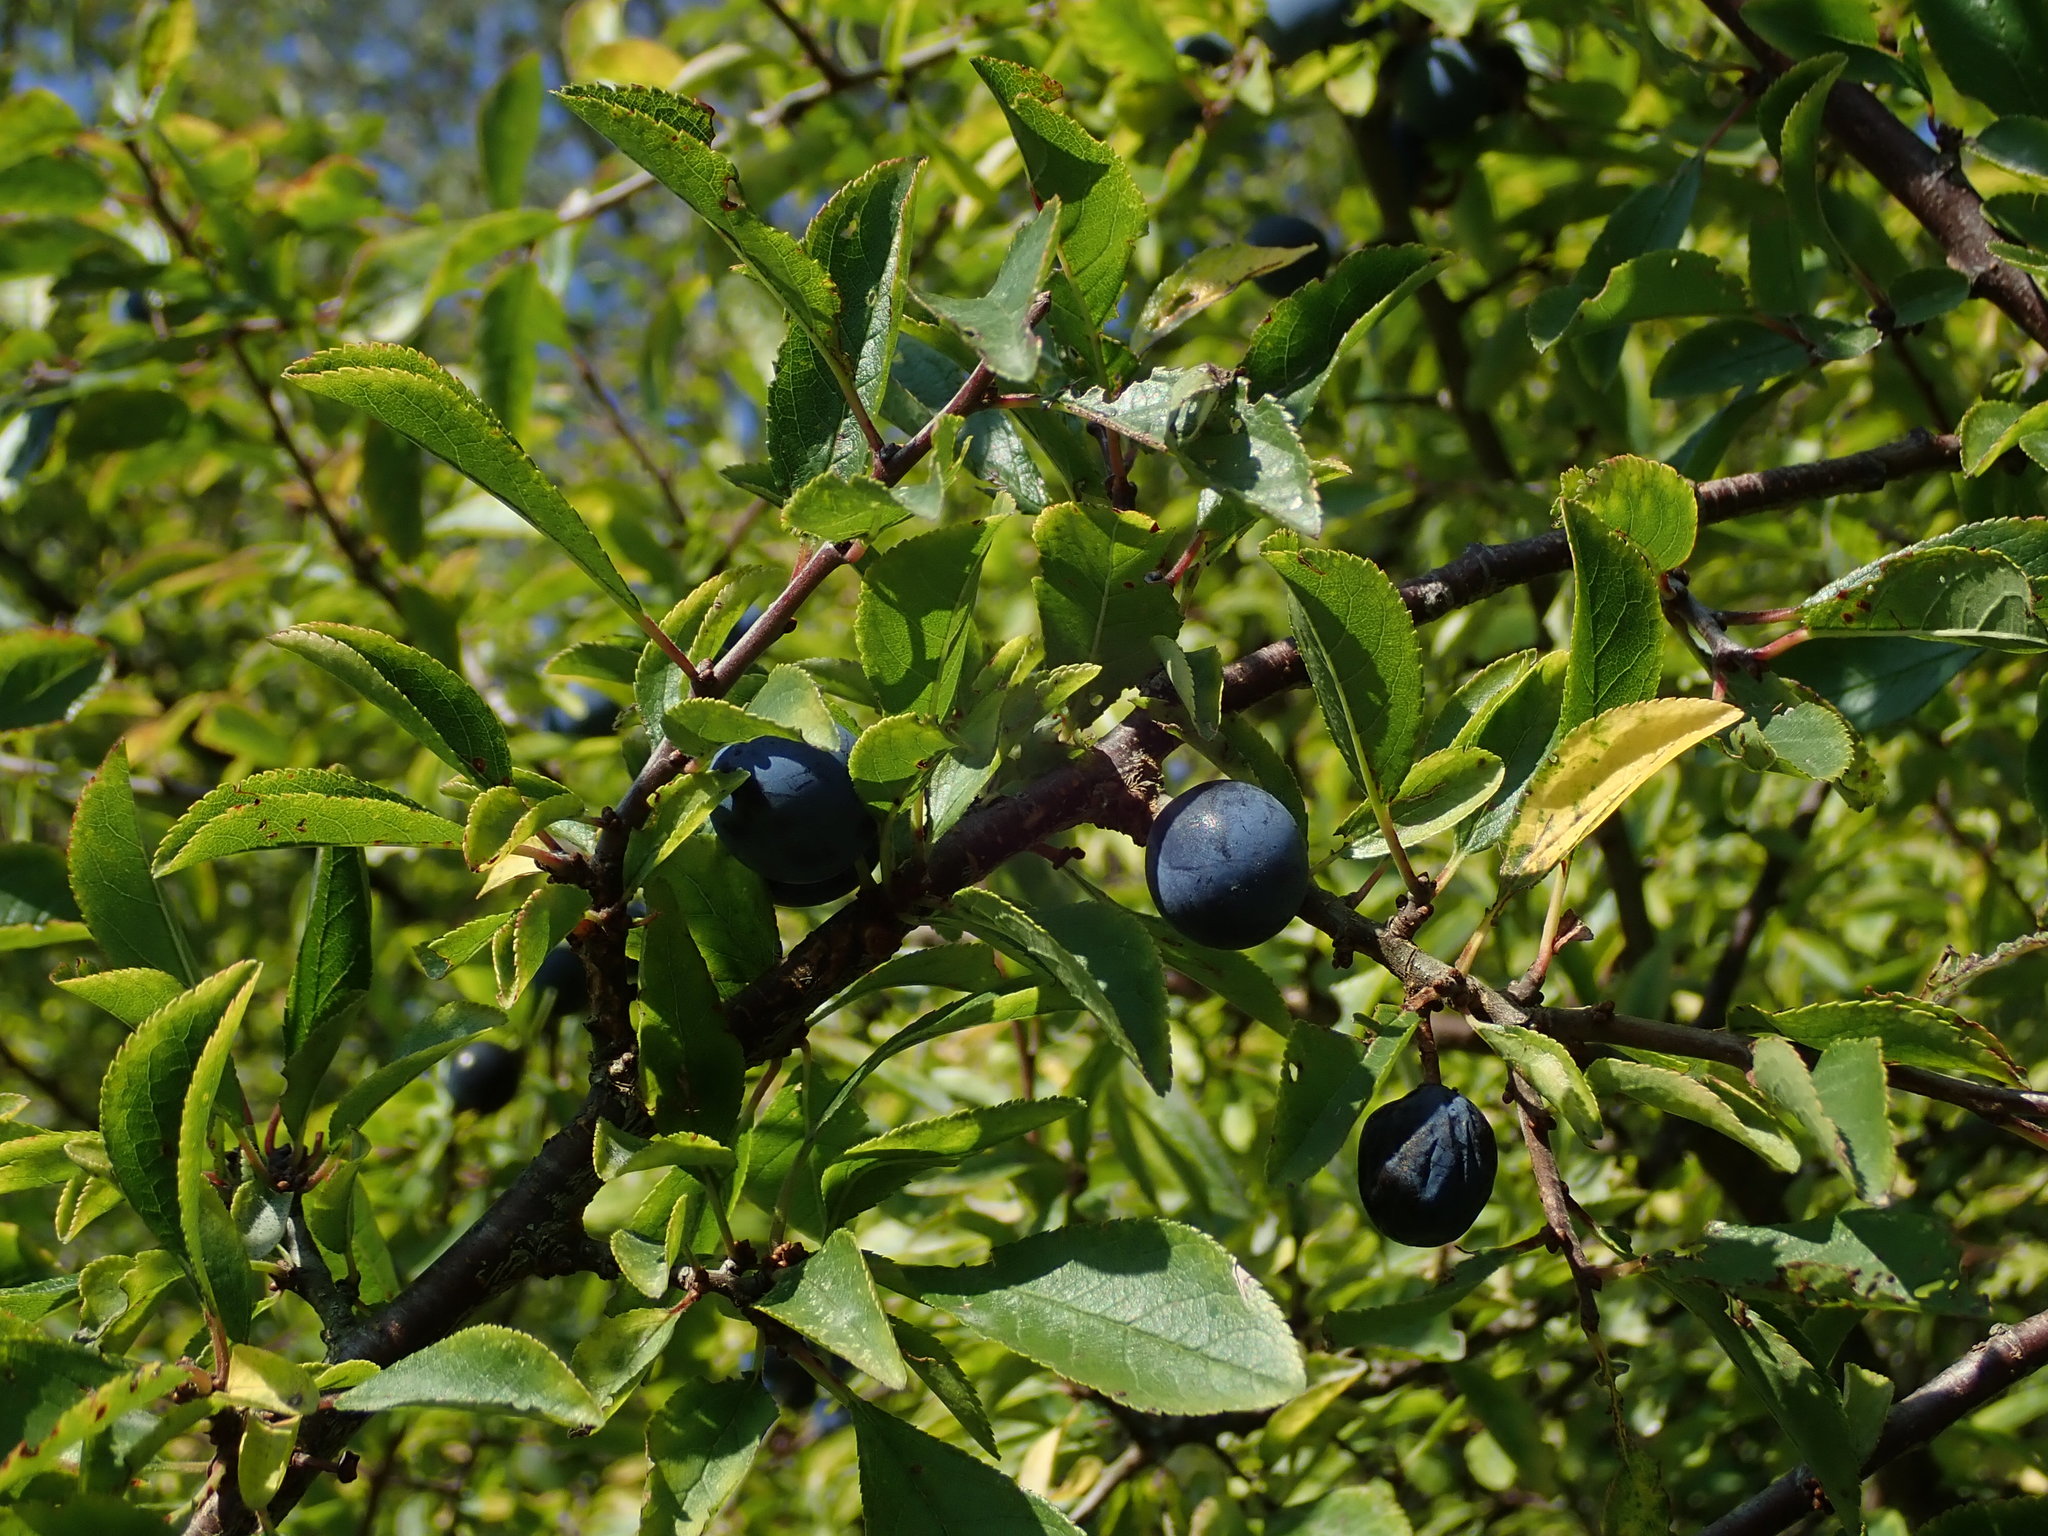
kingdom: Plantae
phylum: Tracheophyta
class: Magnoliopsida
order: Rosales
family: Rosaceae
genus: Prunus
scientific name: Prunus spinosa
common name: Blackthorn
